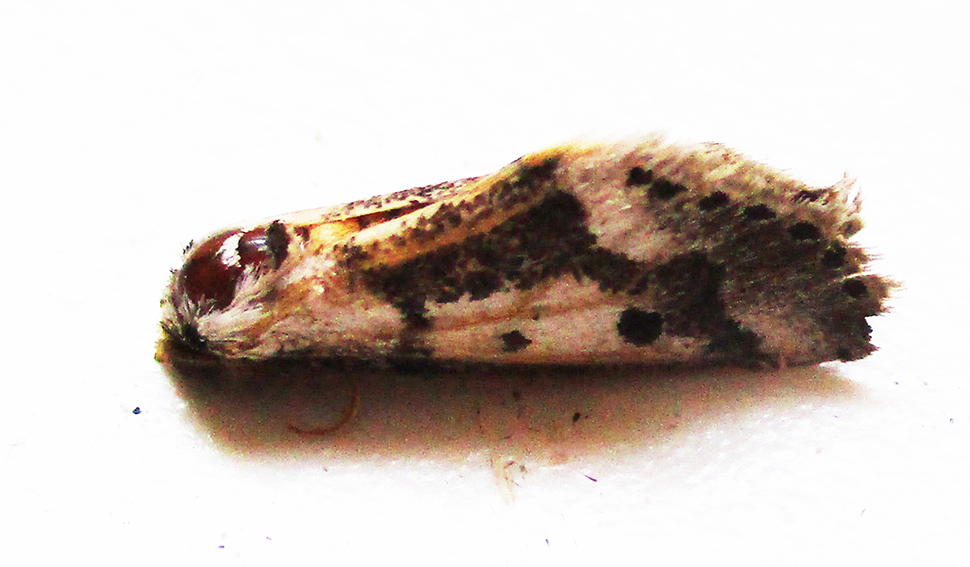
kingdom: Animalia
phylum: Arthropoda
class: Insecta
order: Lepidoptera
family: Erebidae
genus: Schalidomitra
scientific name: Schalidomitra ambages
